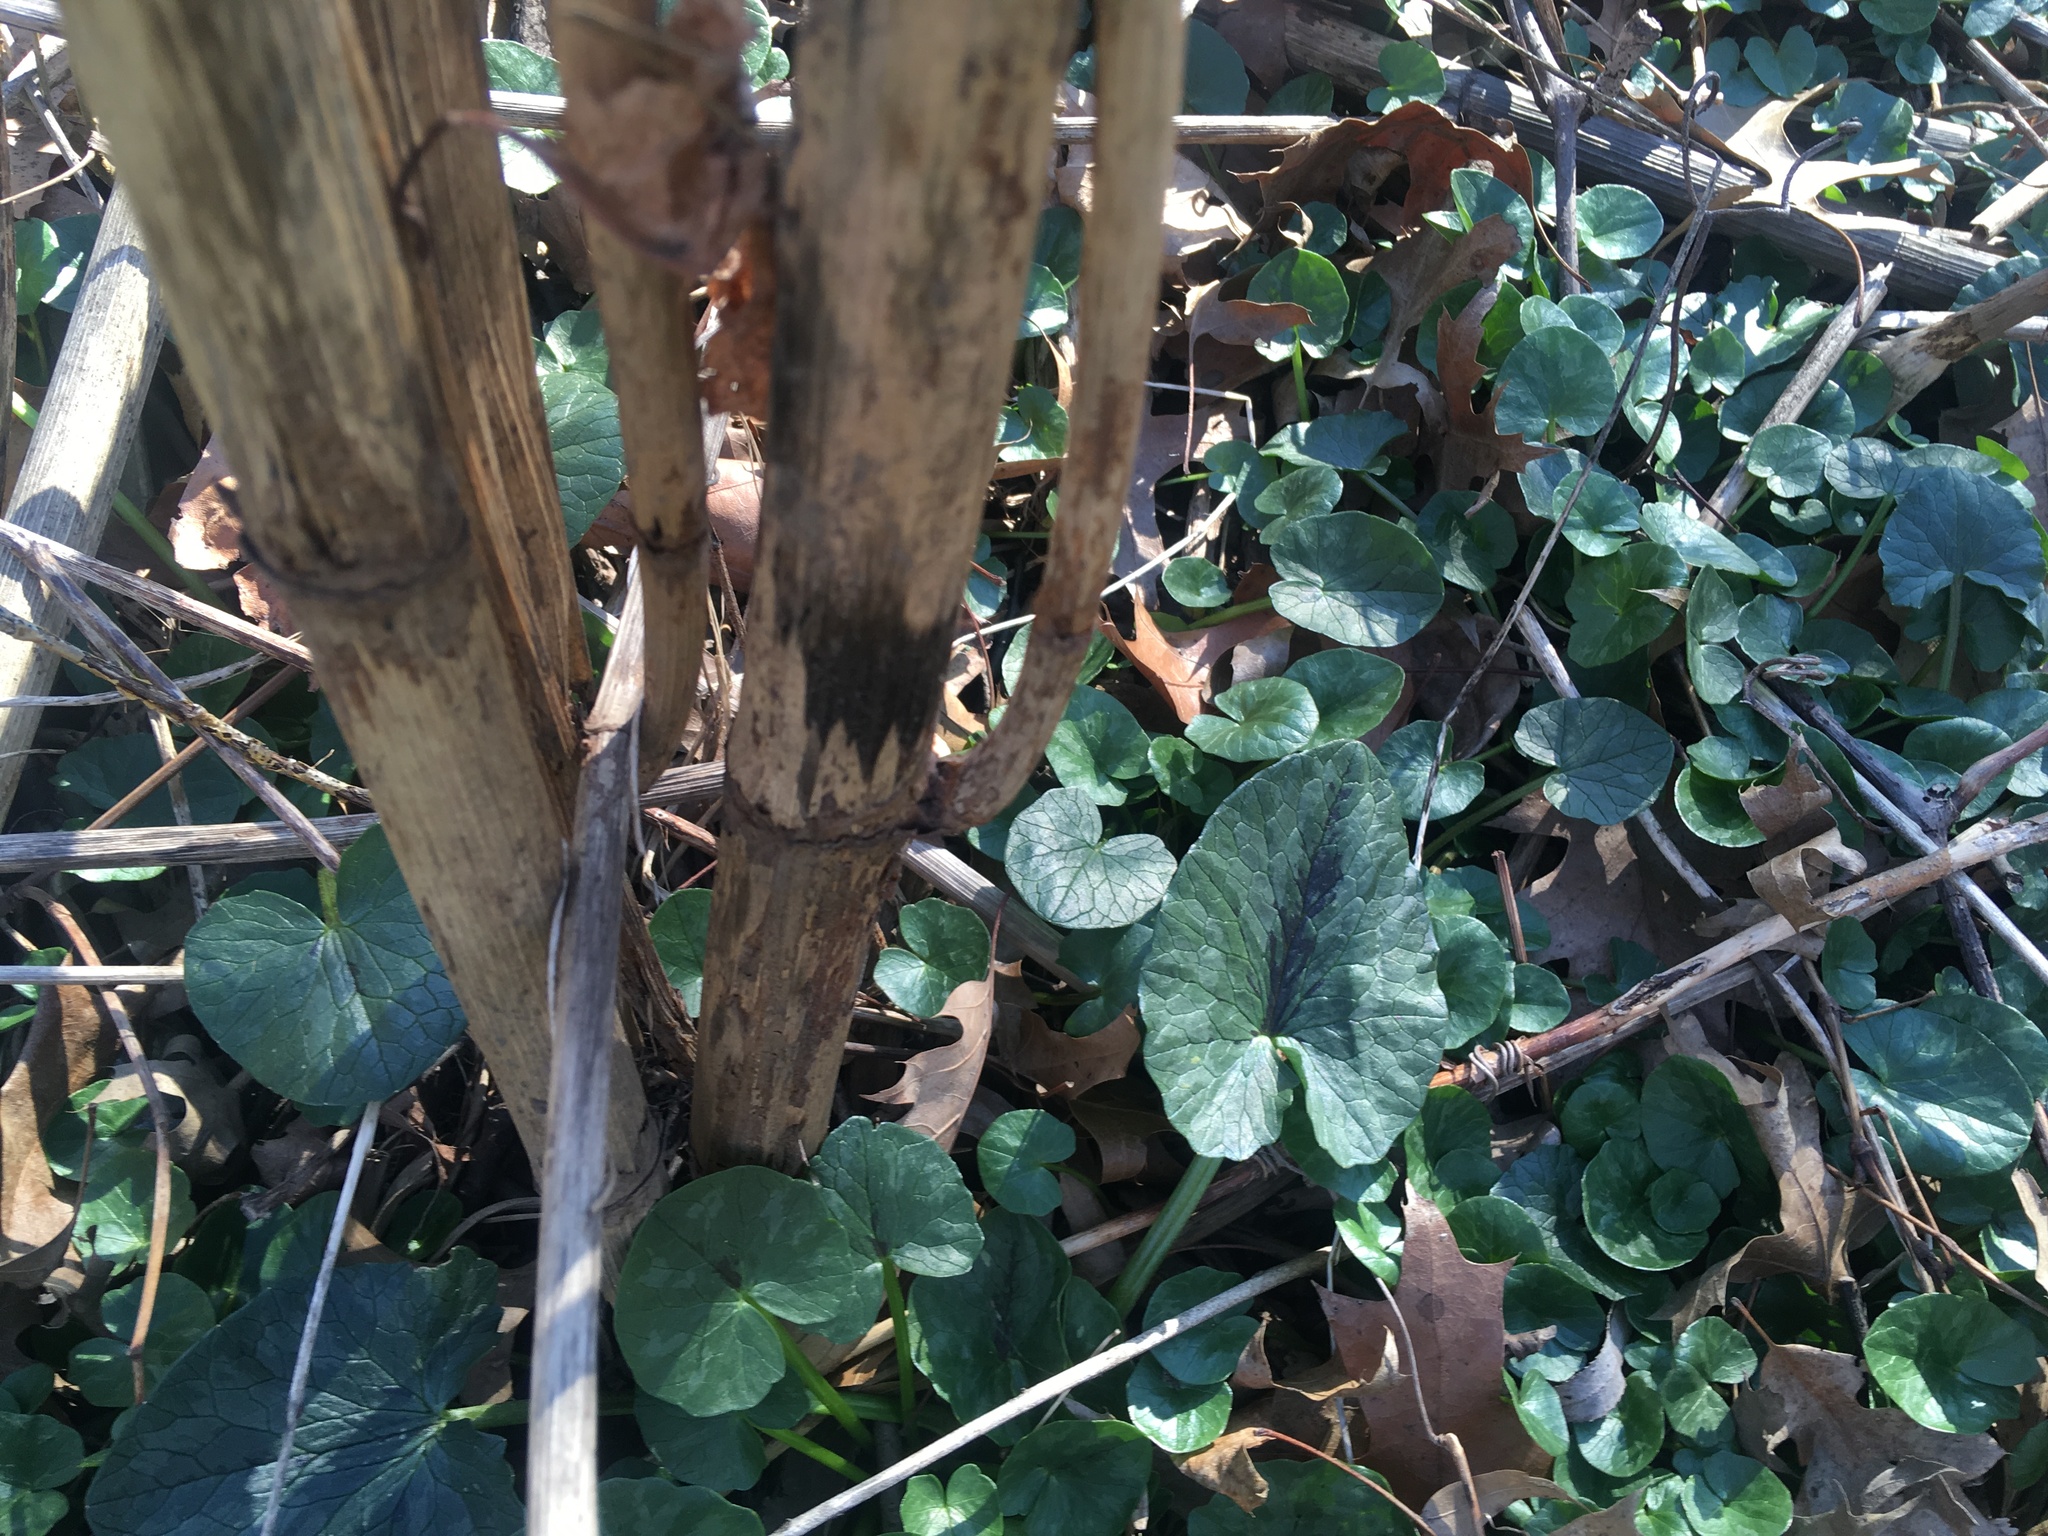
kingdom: Plantae
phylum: Tracheophyta
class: Magnoliopsida
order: Ranunculales
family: Ranunculaceae
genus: Ficaria
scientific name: Ficaria verna
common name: Lesser celandine
